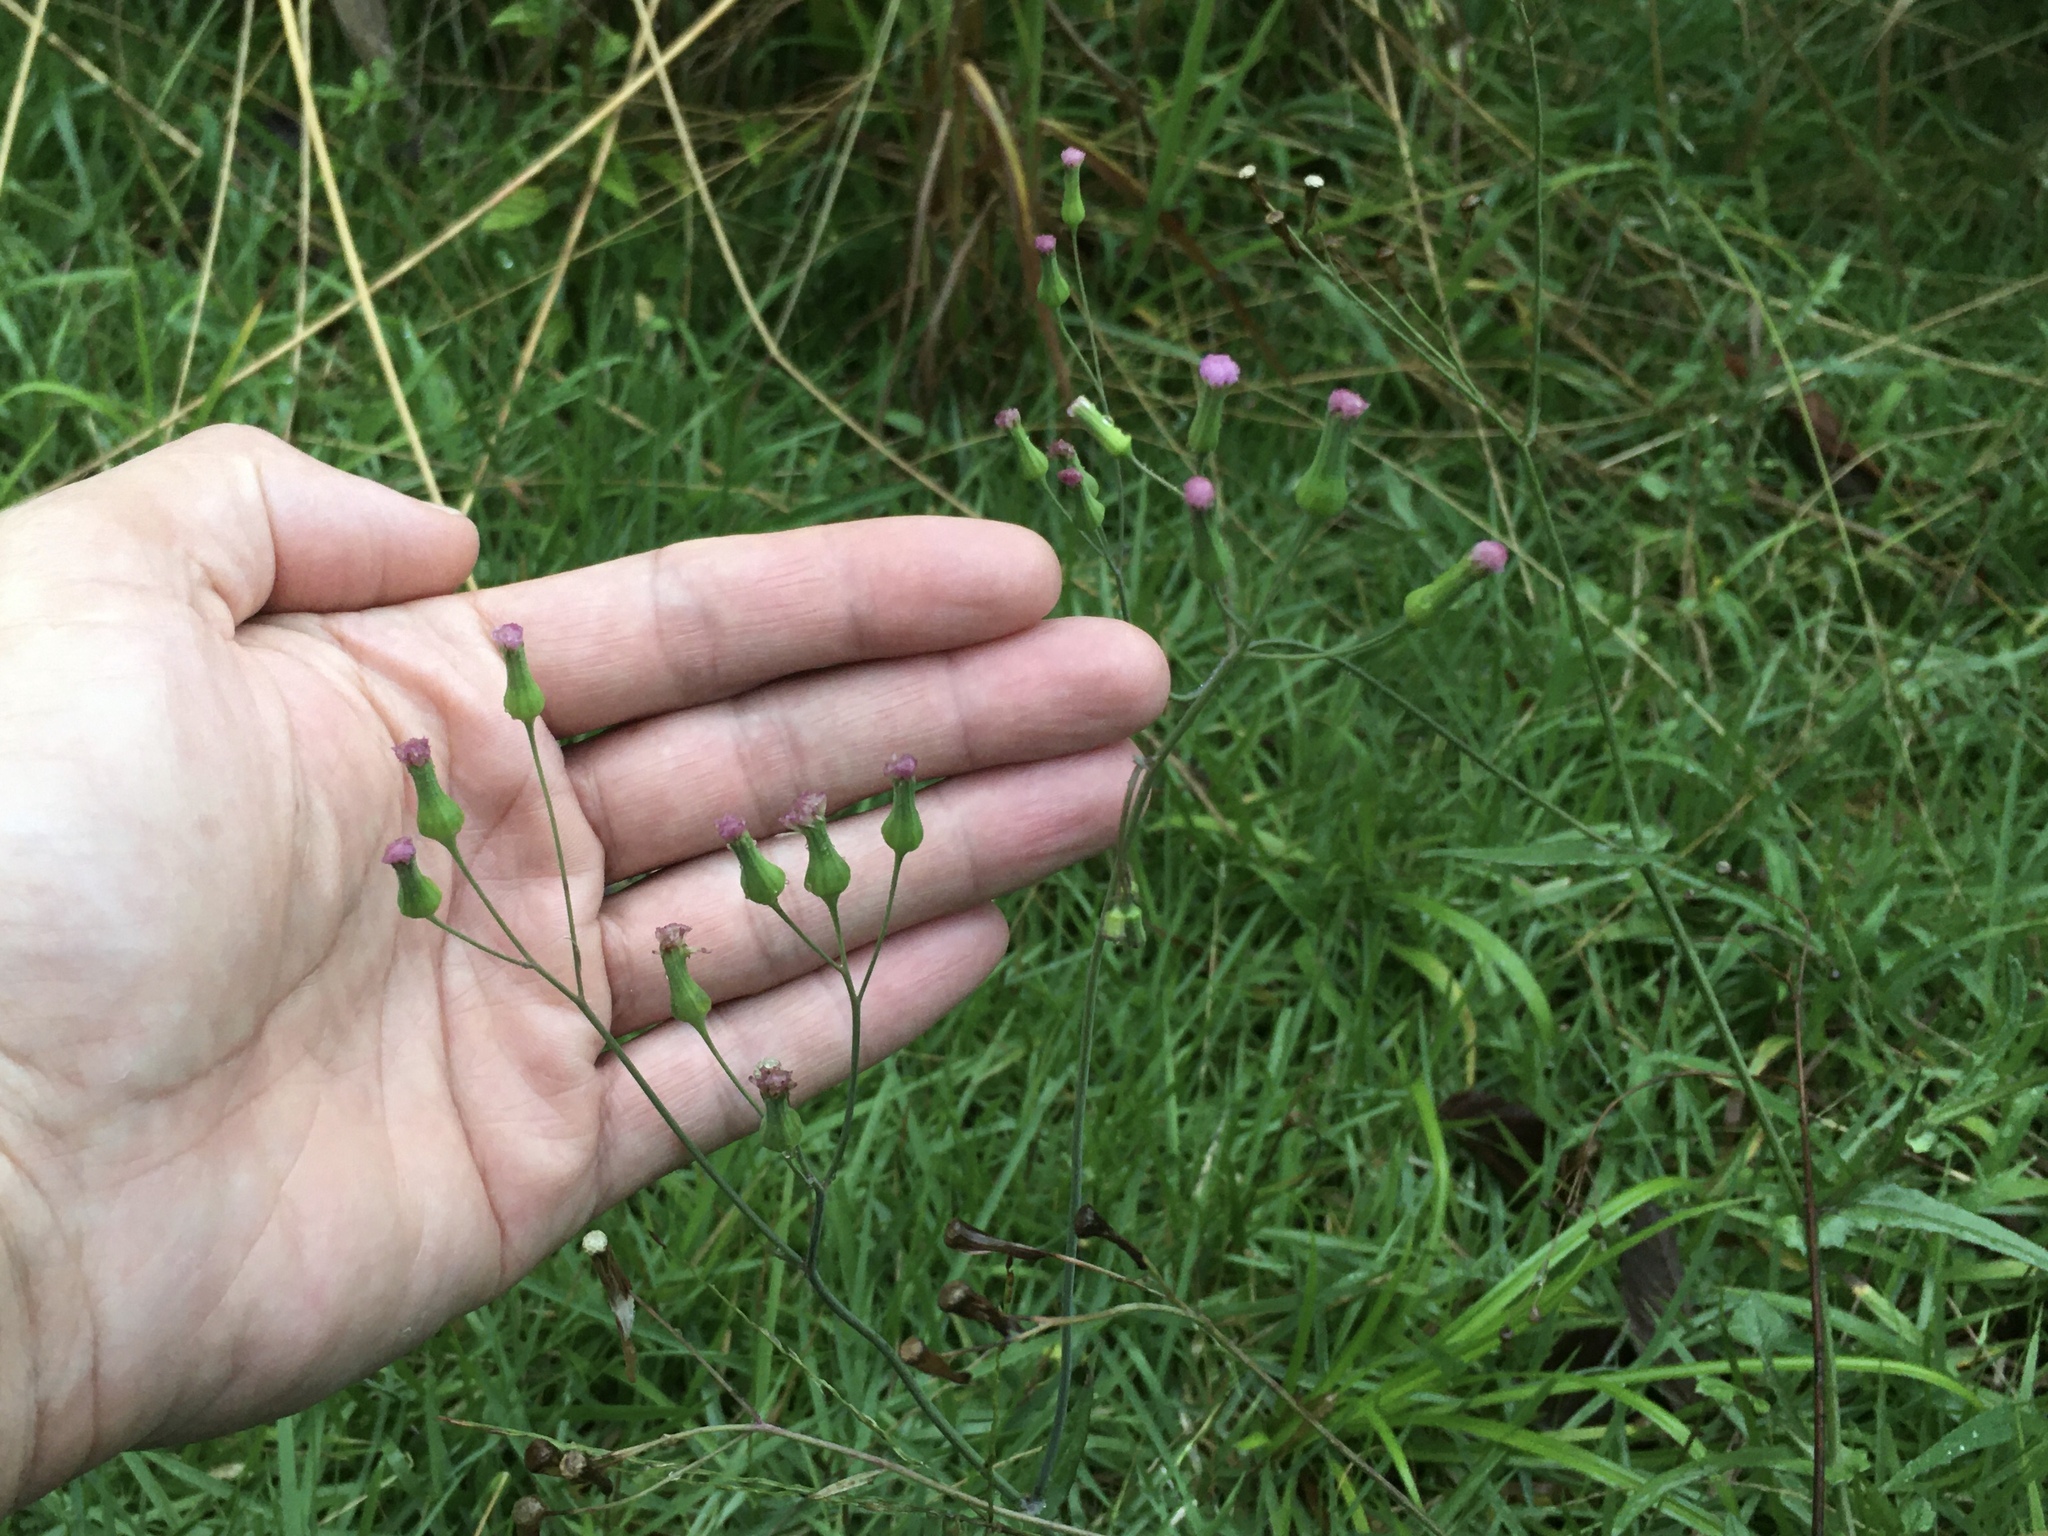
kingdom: Plantae
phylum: Tracheophyta
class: Magnoliopsida
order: Asterales
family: Asteraceae
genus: Emilia
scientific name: Emilia sonchifolia
